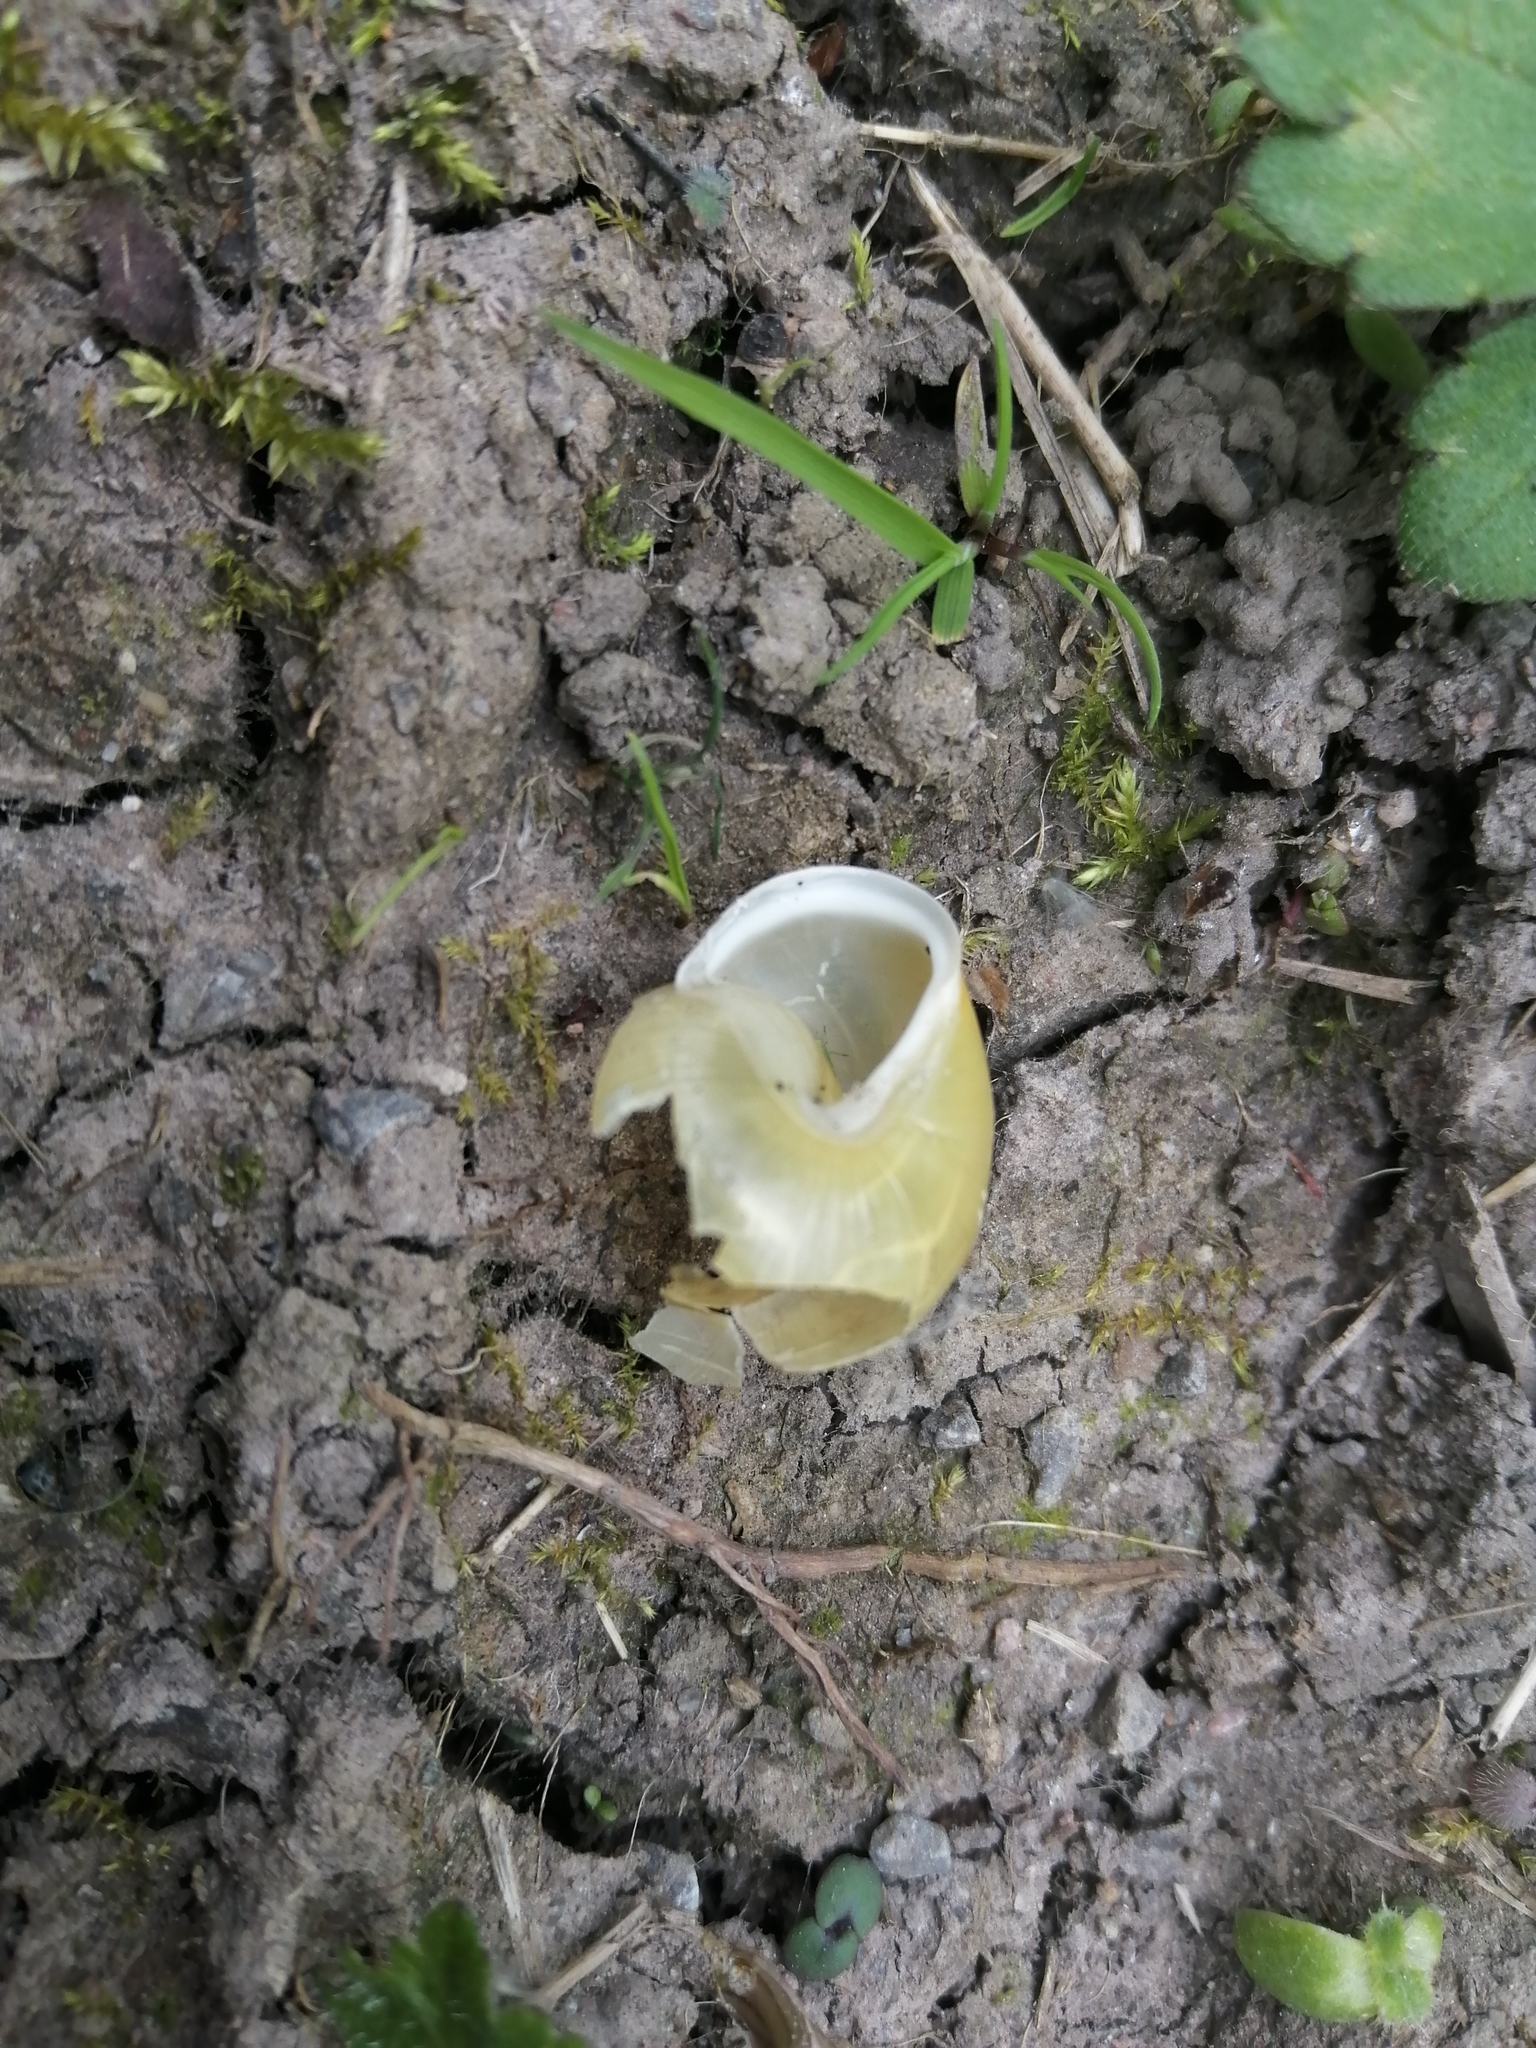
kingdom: Animalia
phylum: Mollusca
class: Gastropoda
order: Stylommatophora
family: Helicidae
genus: Cepaea
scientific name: Cepaea hortensis
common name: White-lip gardensnail
